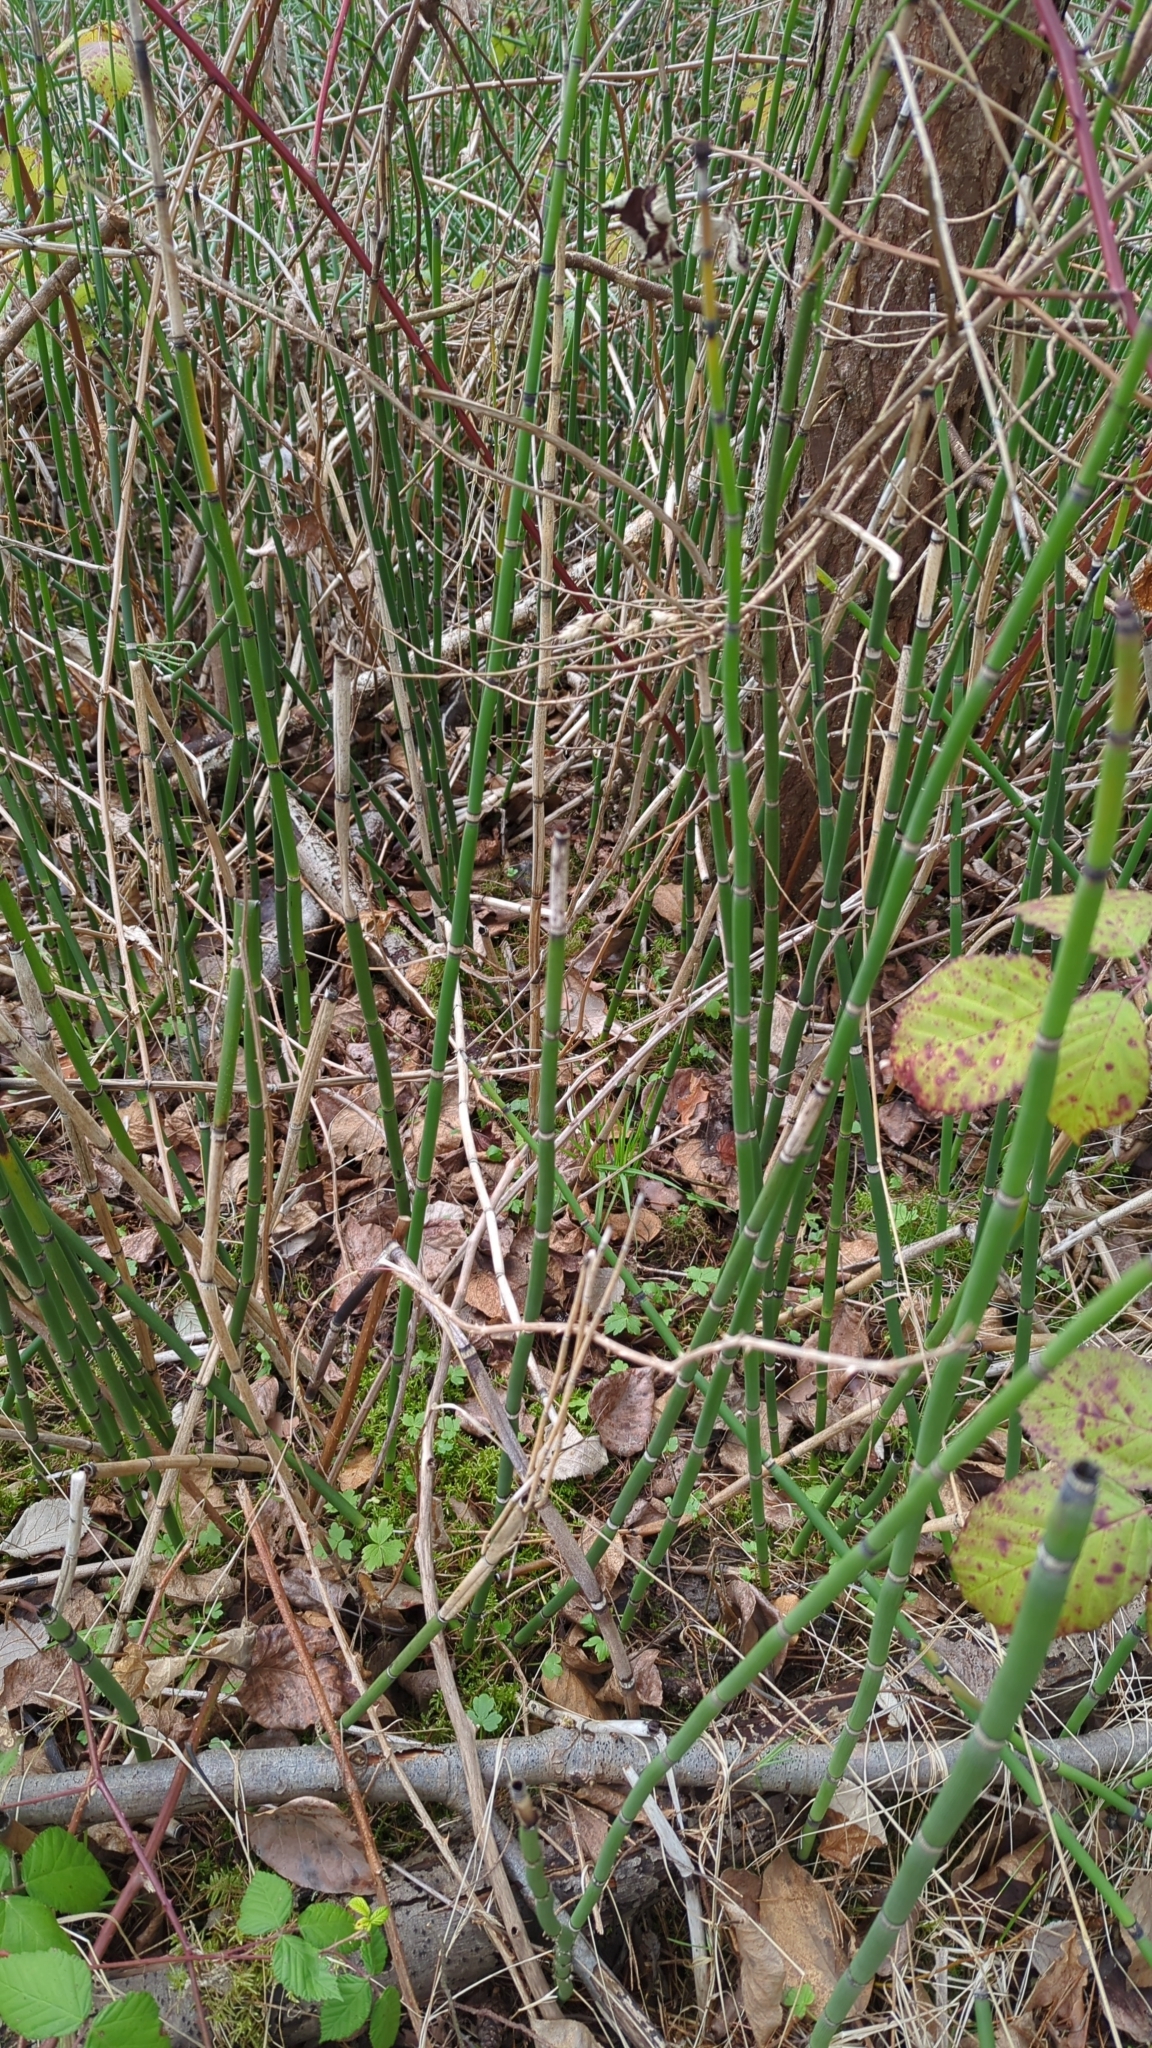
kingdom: Plantae
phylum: Tracheophyta
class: Polypodiopsida
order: Equisetales
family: Equisetaceae
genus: Equisetum
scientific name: Equisetum hyemale
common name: Rough horsetail
